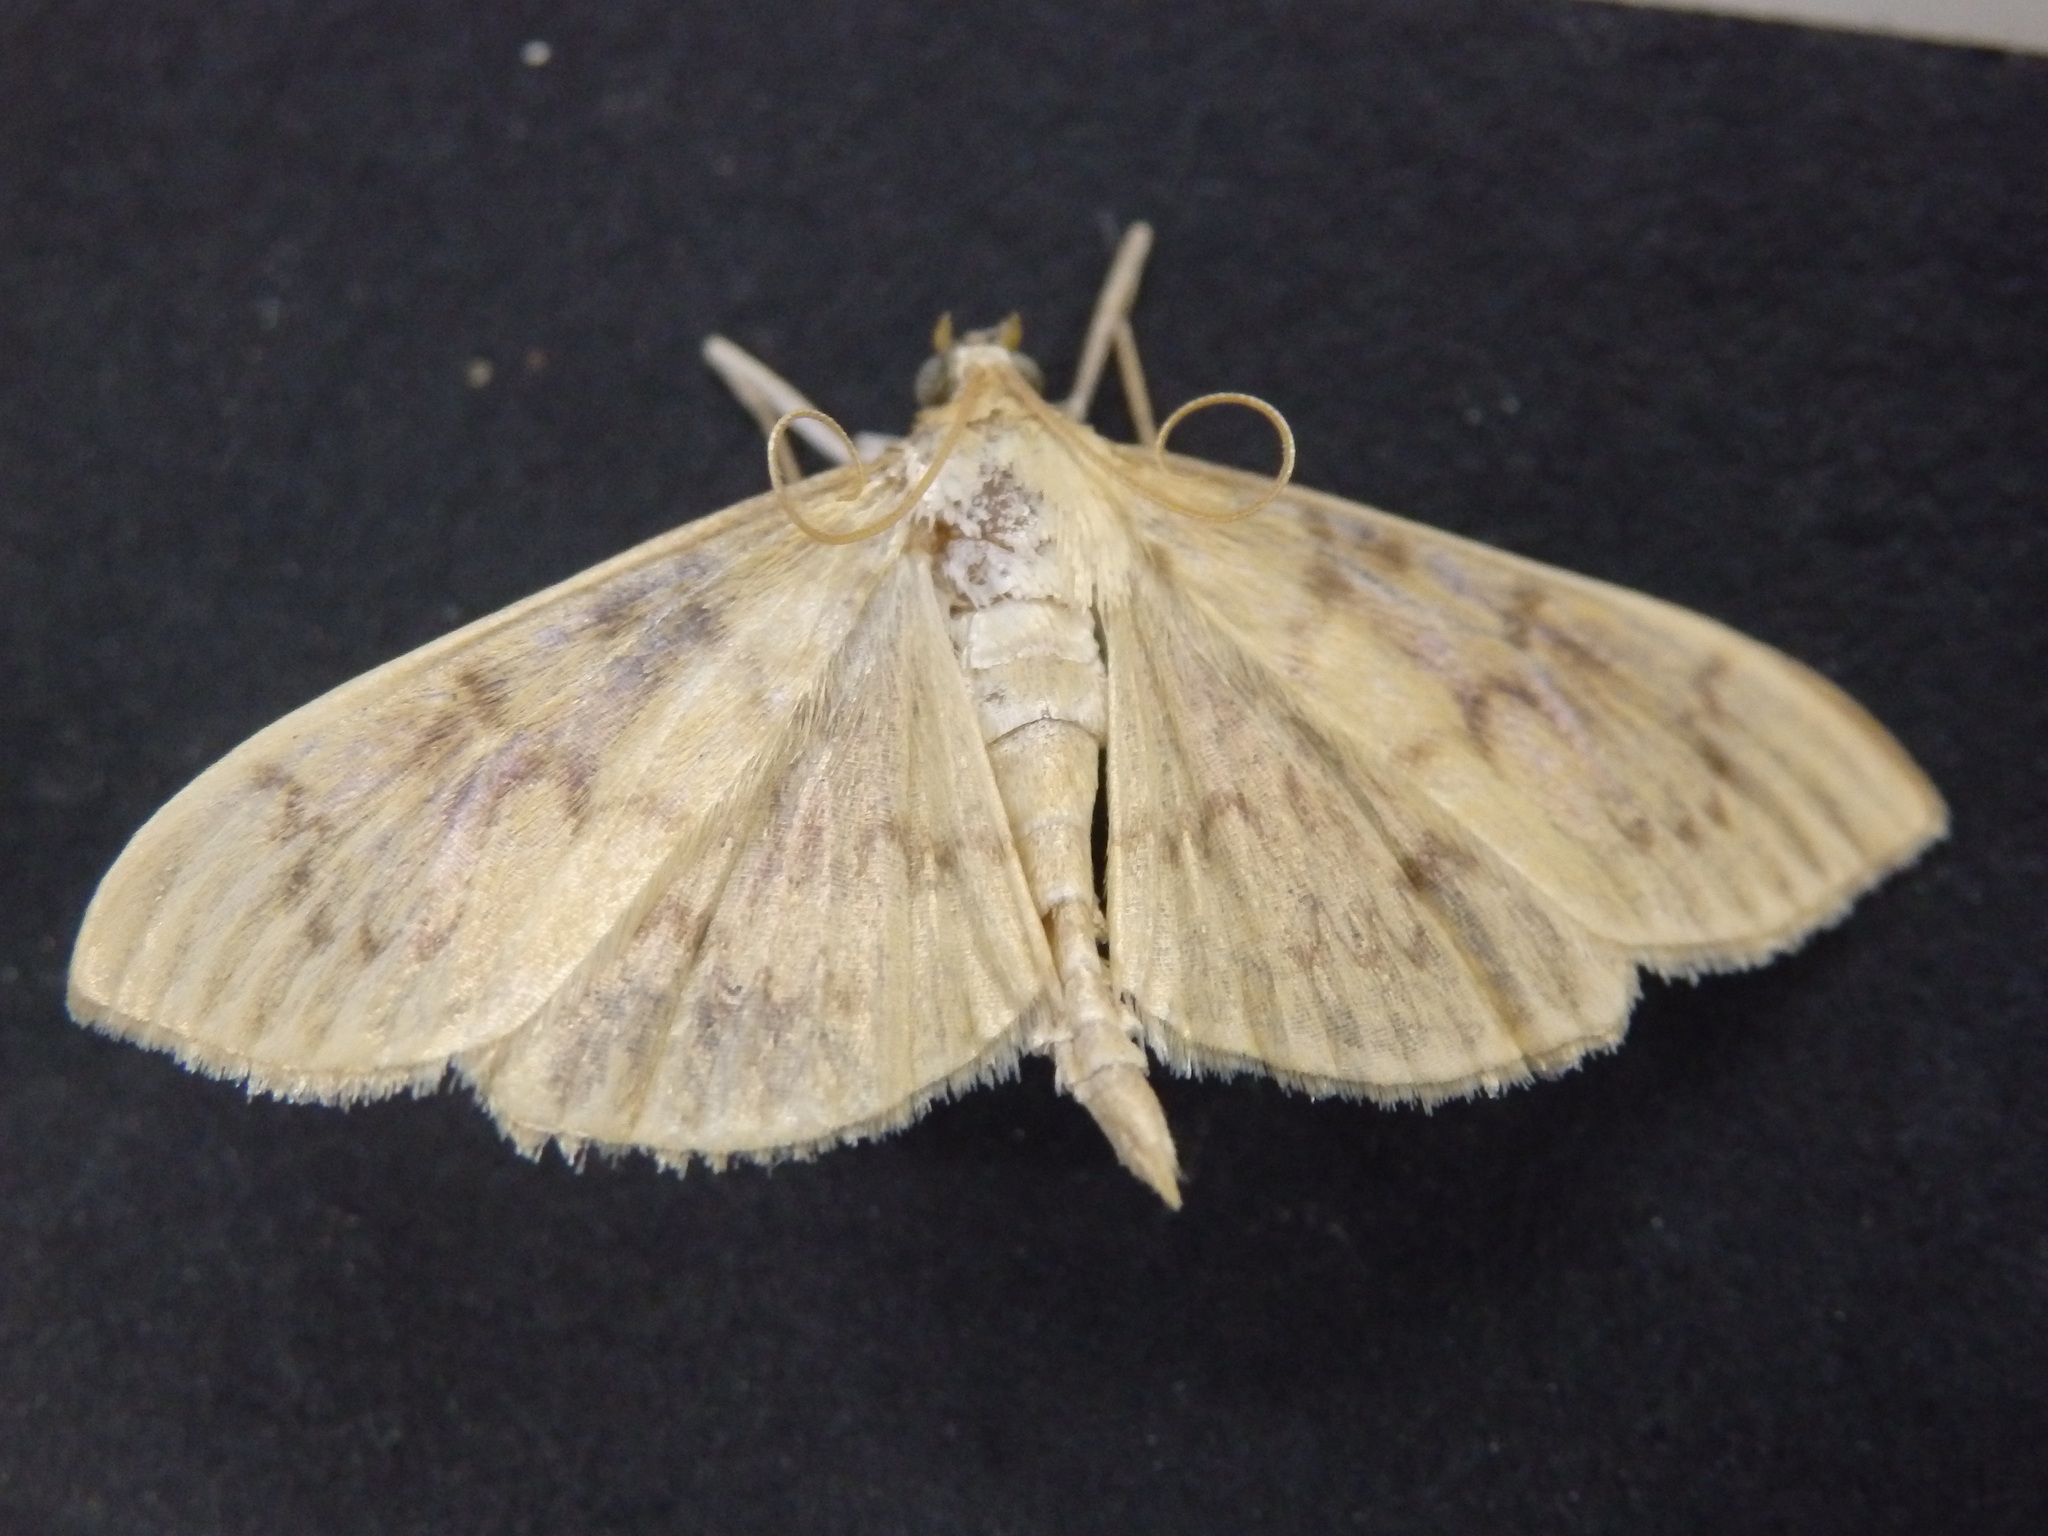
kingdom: Animalia
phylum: Arthropoda
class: Insecta
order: Lepidoptera
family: Crambidae
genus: Patania
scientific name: Patania ruralis
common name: Mother of pearl
